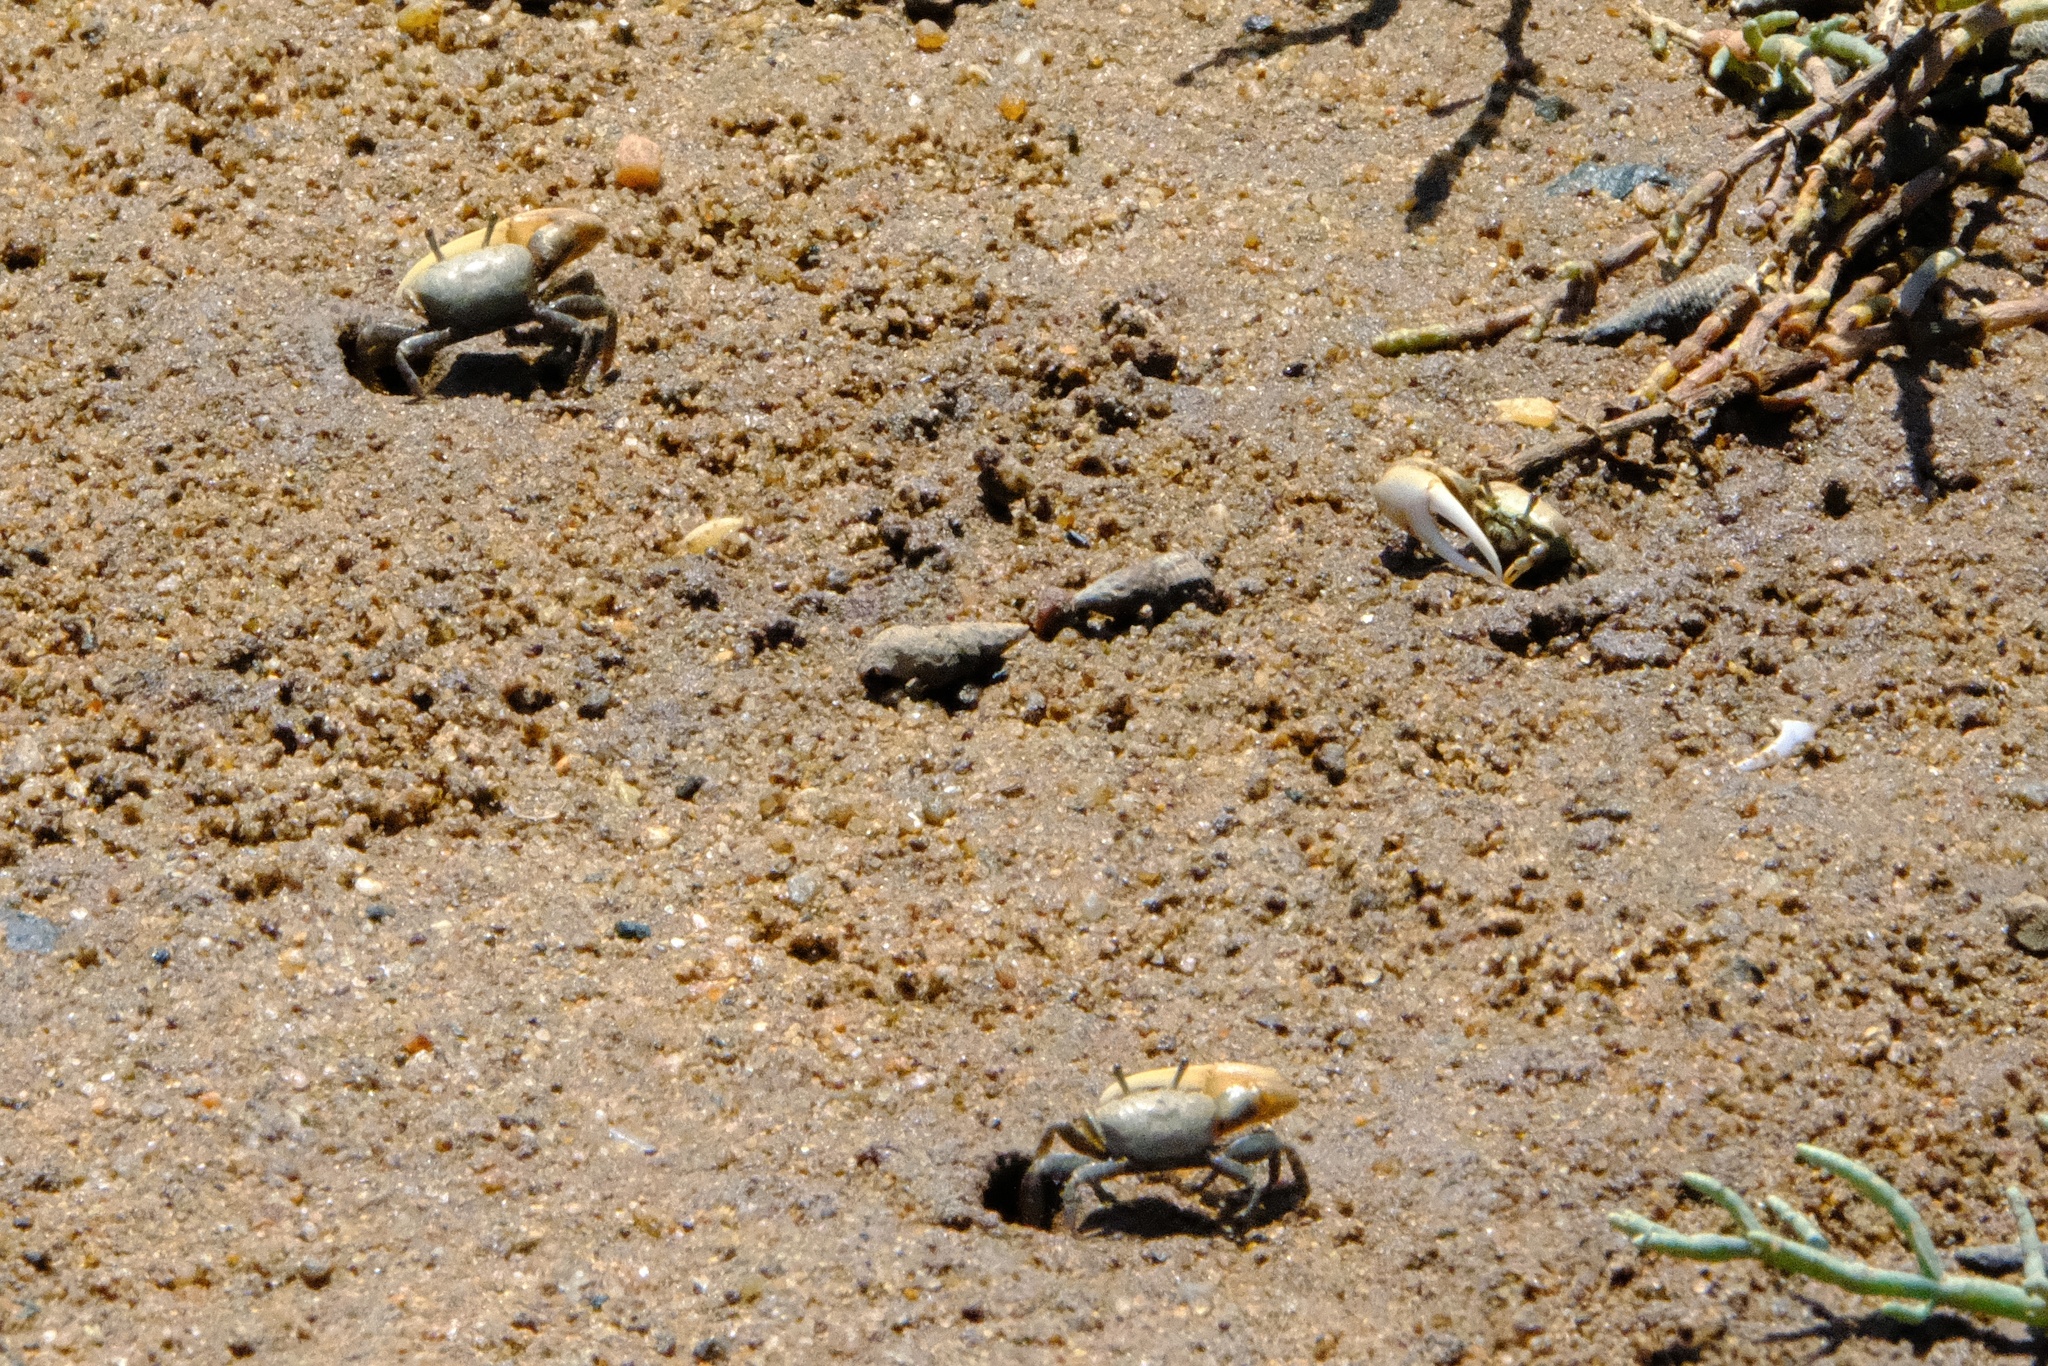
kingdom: Animalia
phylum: Arthropoda
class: Malacostraca
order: Decapoda
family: Ocypodidae
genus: Leptuca
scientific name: Leptuca crenulata
